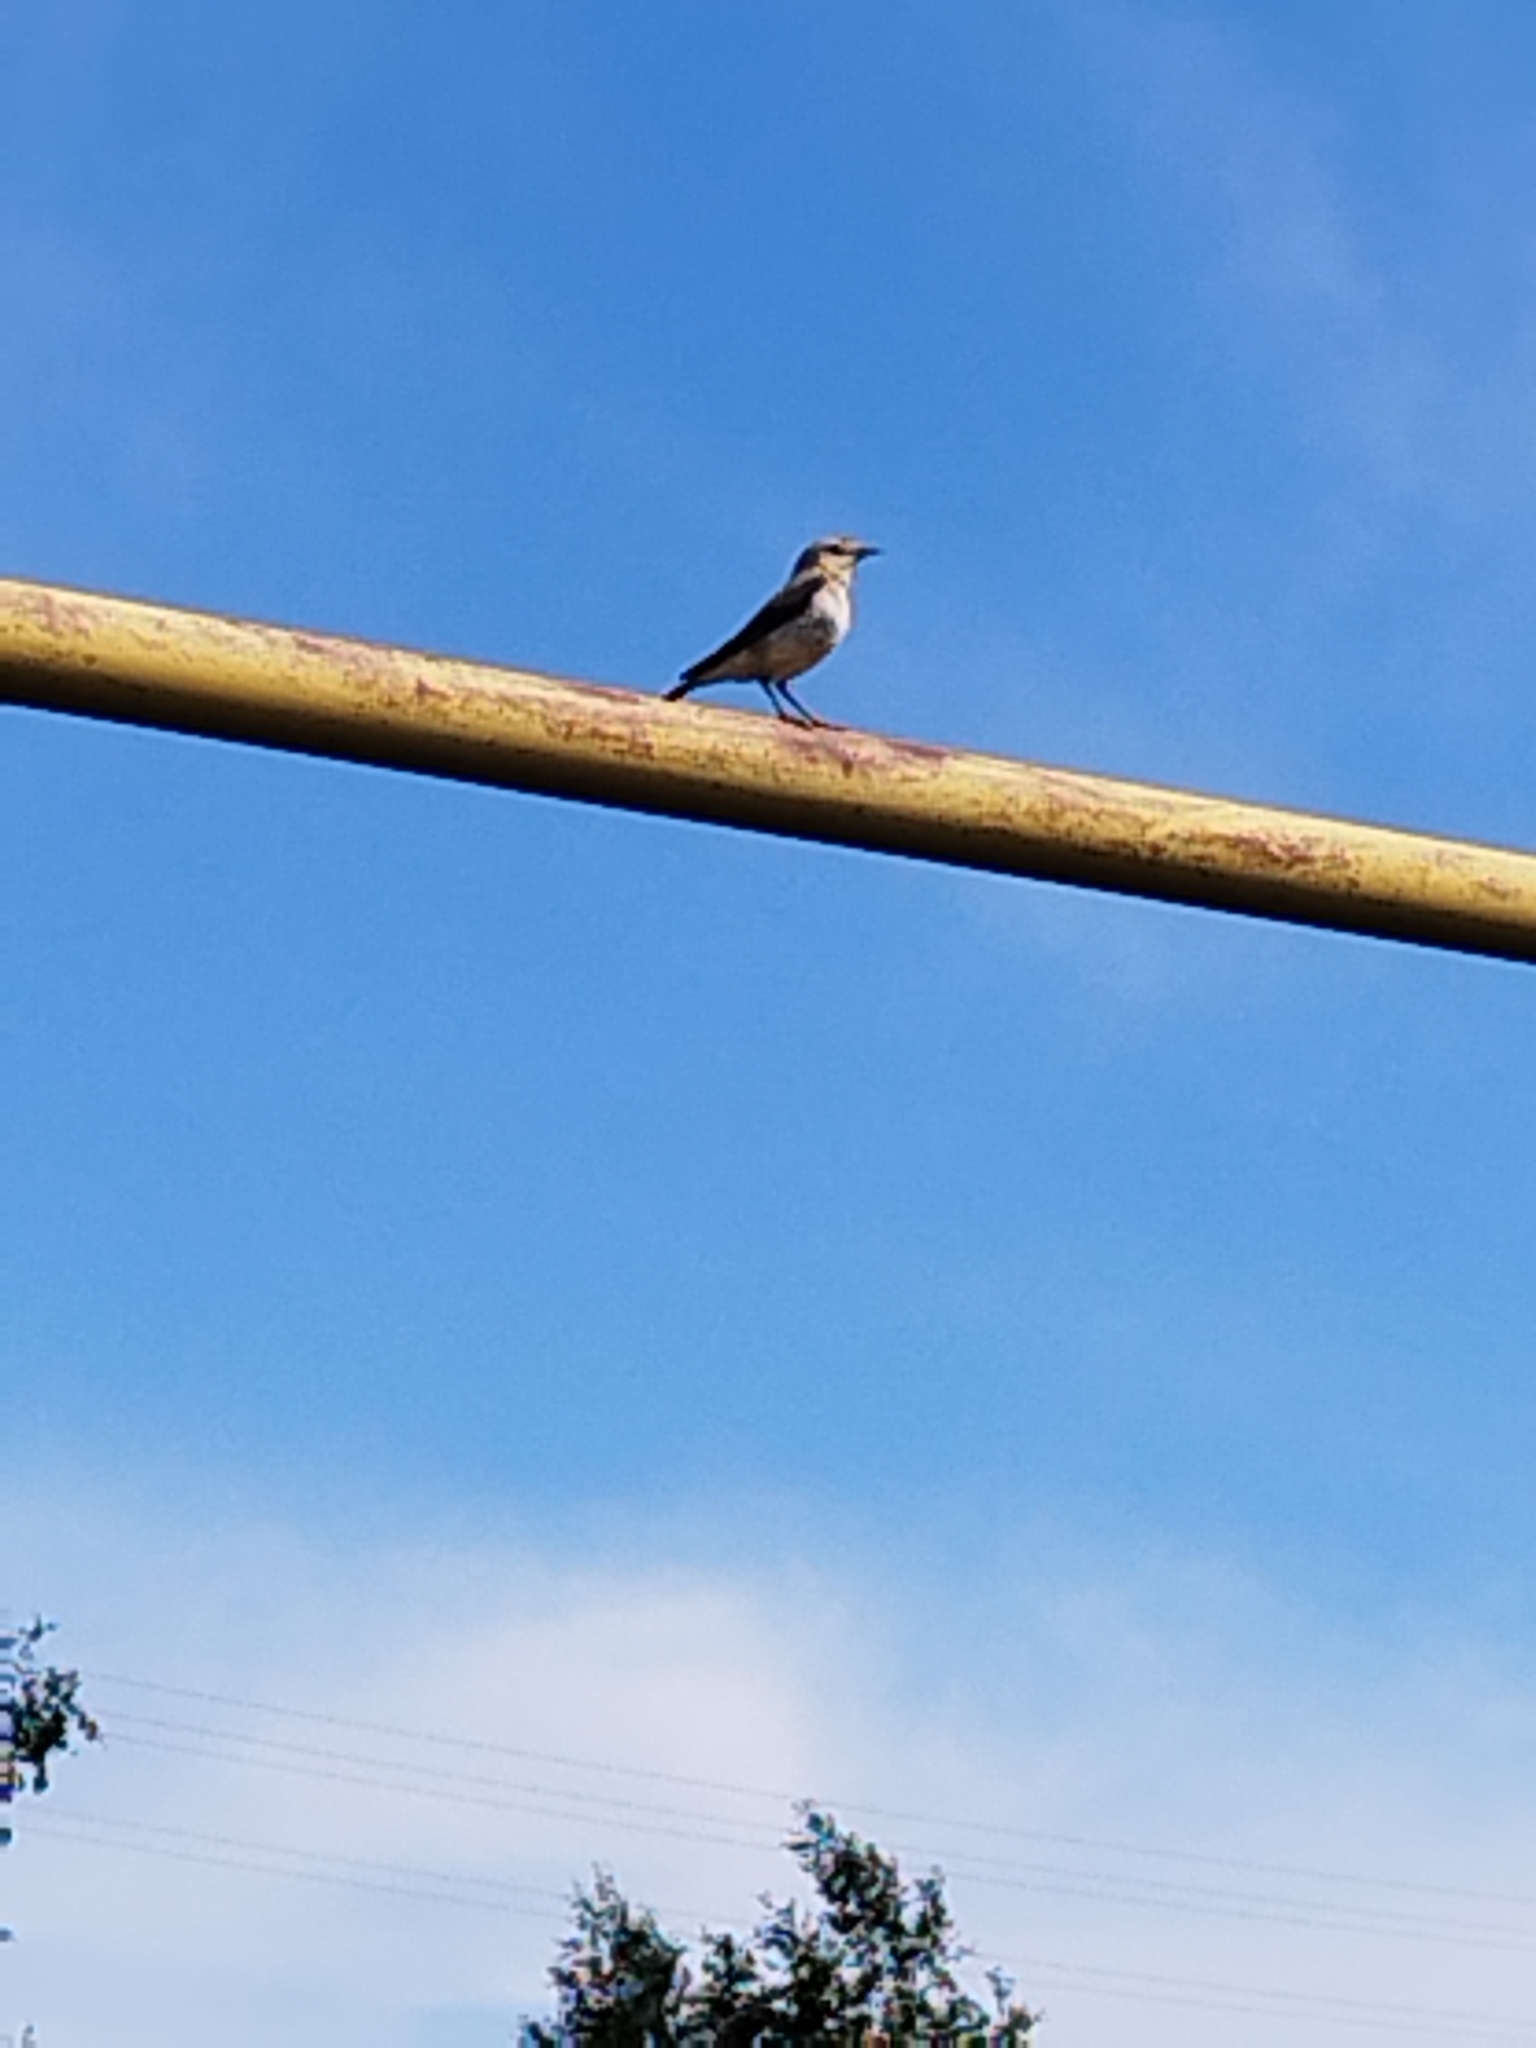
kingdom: Animalia
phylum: Chordata
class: Aves
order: Passeriformes
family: Muscicapidae
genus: Oenanthe
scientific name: Oenanthe oenanthe
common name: Northern wheatear
